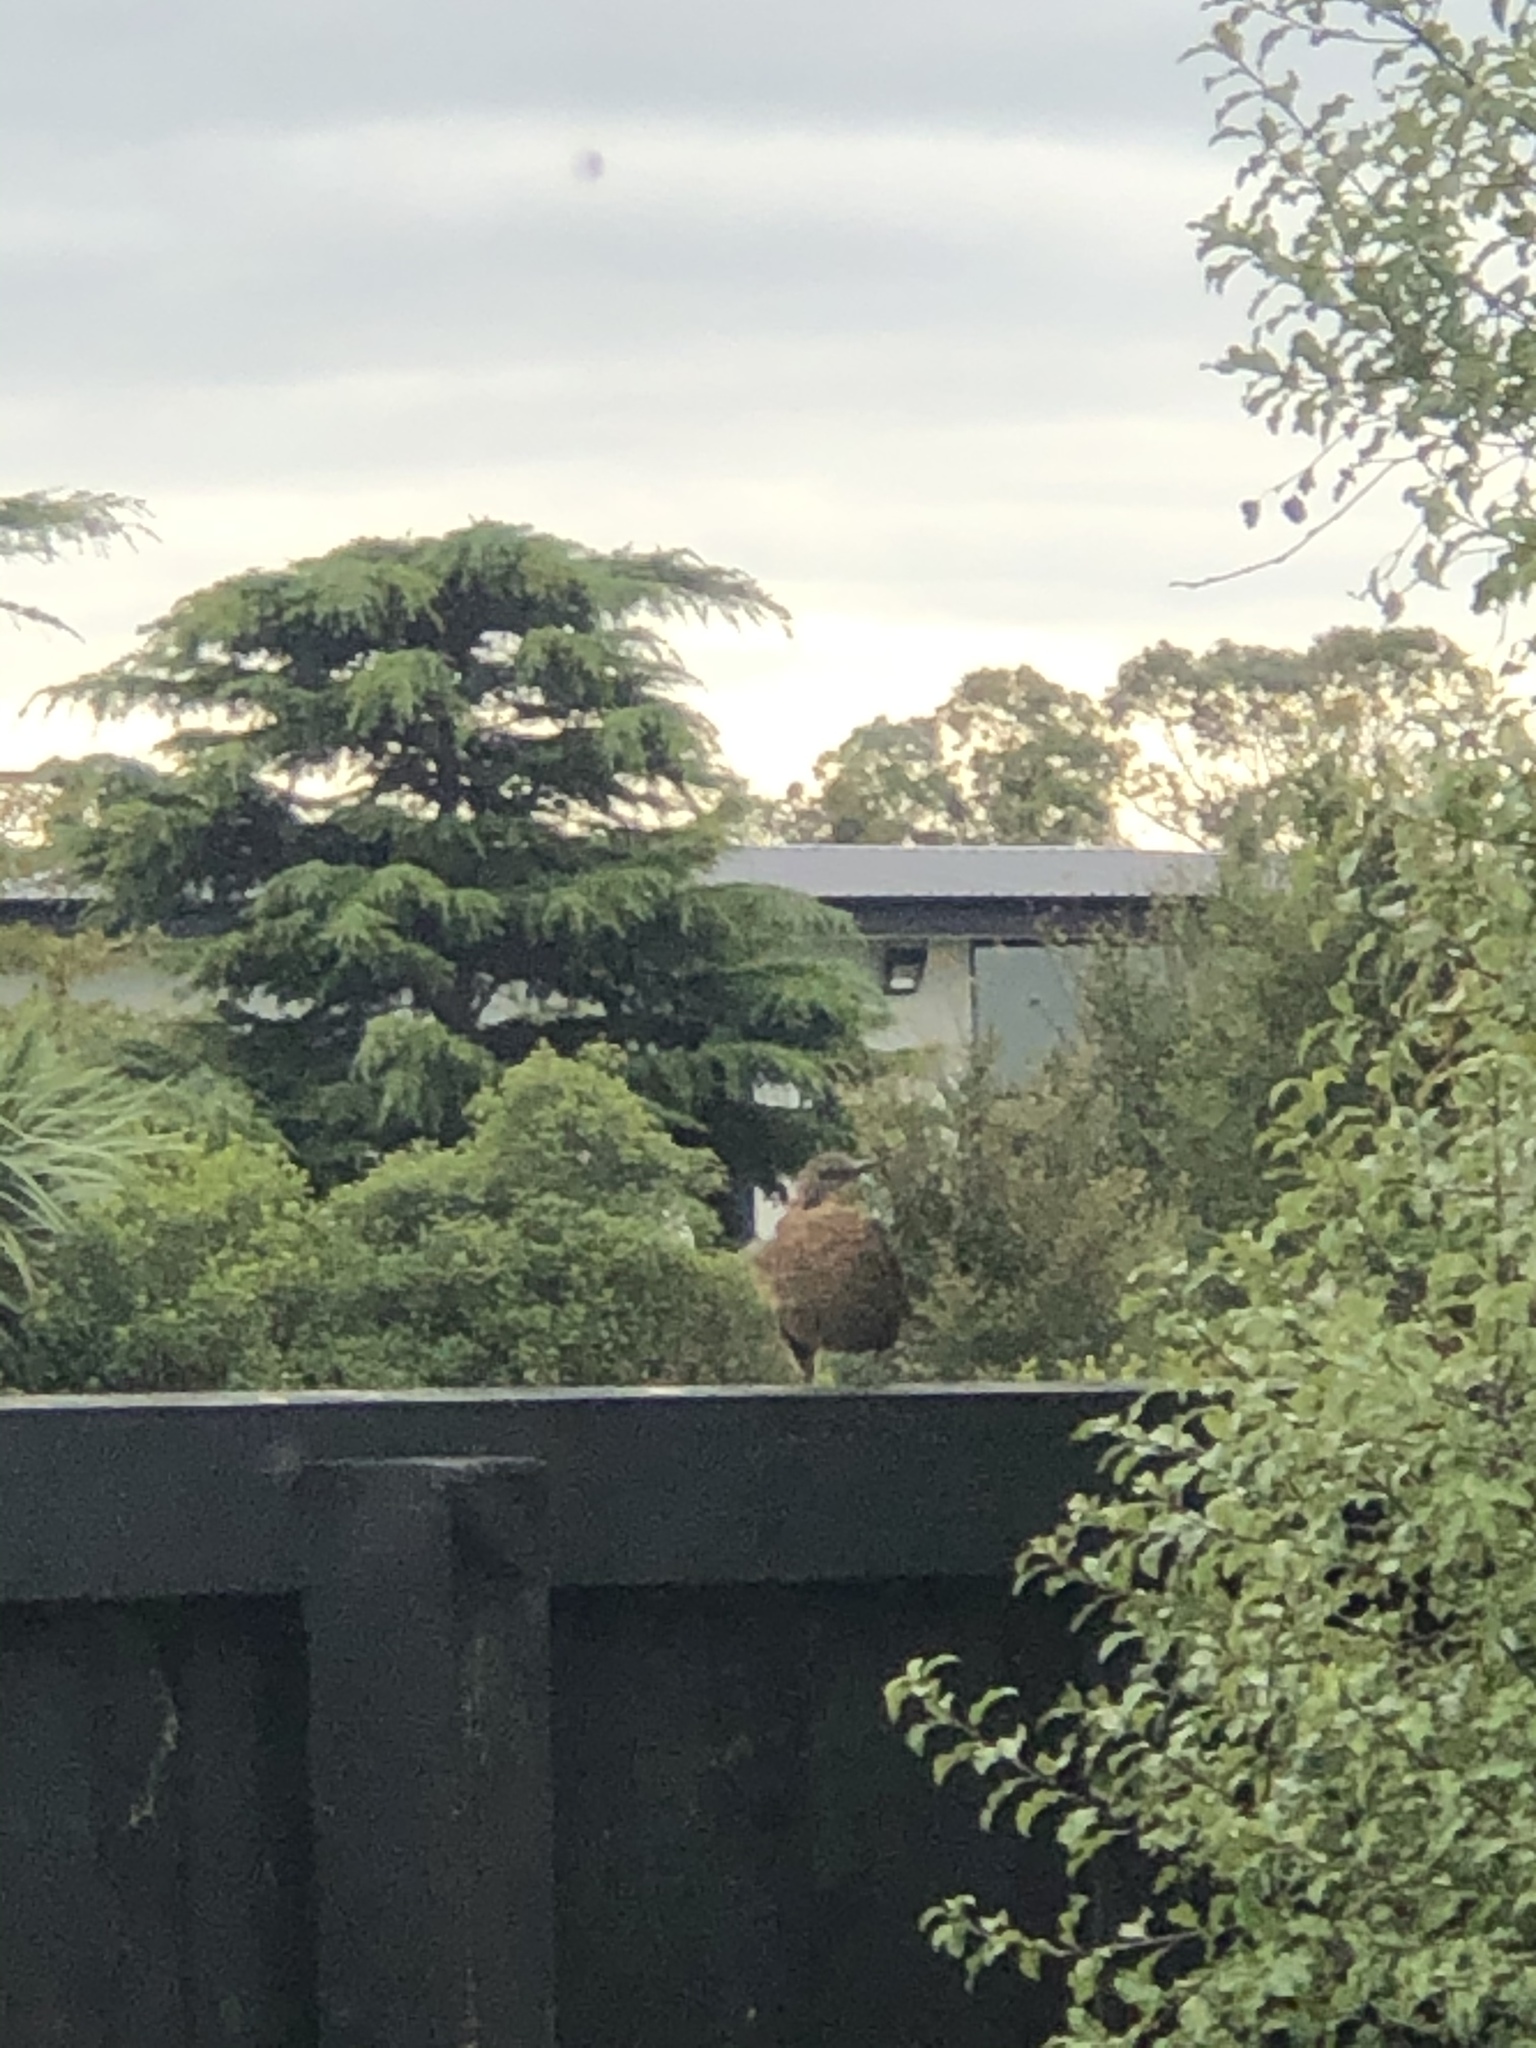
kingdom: Animalia
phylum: Chordata
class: Aves
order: Passeriformes
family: Turdidae
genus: Turdus
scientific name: Turdus merula
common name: Common blackbird
